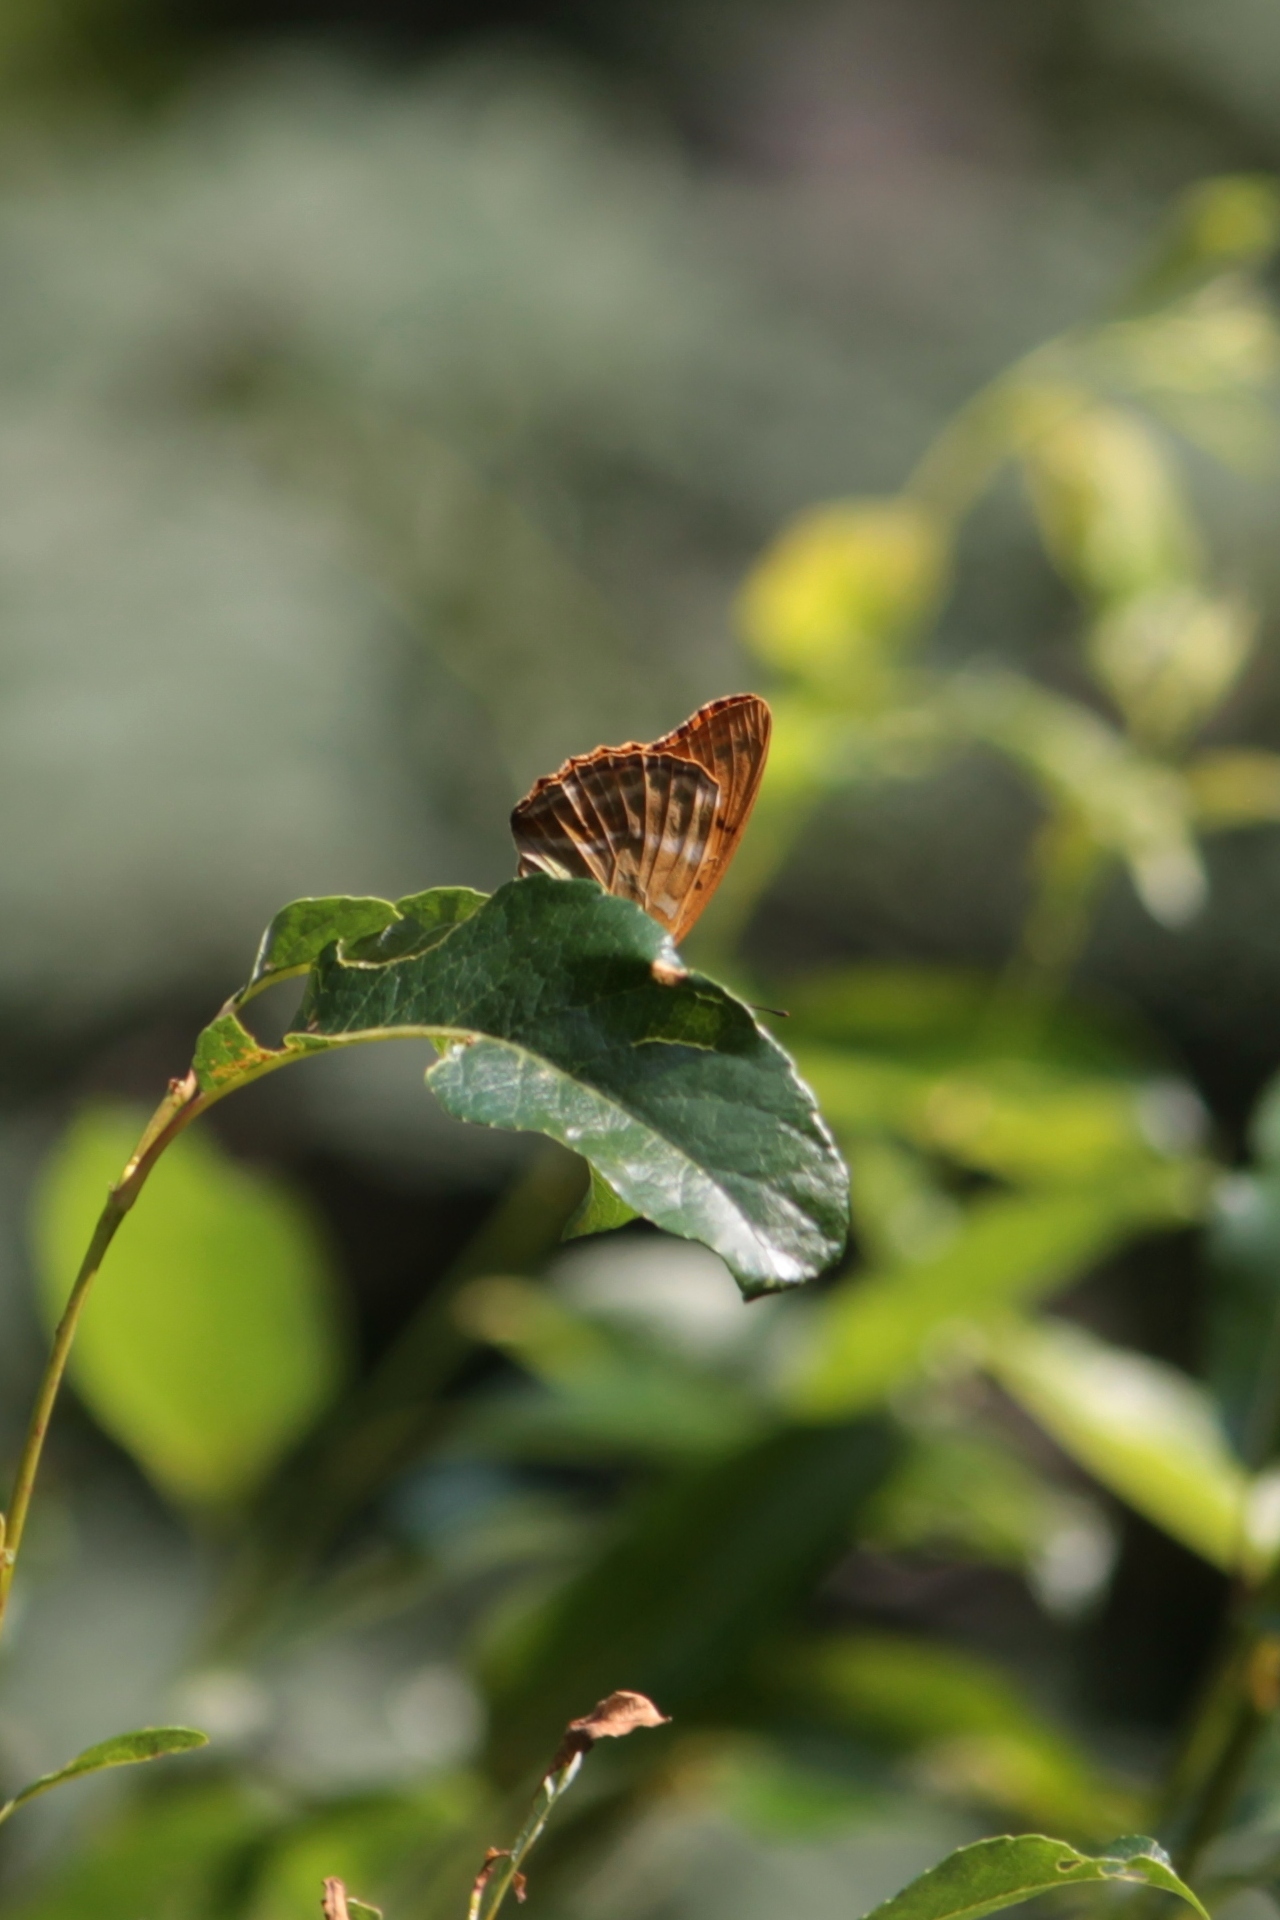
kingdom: Animalia
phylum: Arthropoda
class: Insecta
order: Lepidoptera
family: Nymphalidae
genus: Argynnis
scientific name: Argynnis paphia
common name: Silver-washed fritillary
